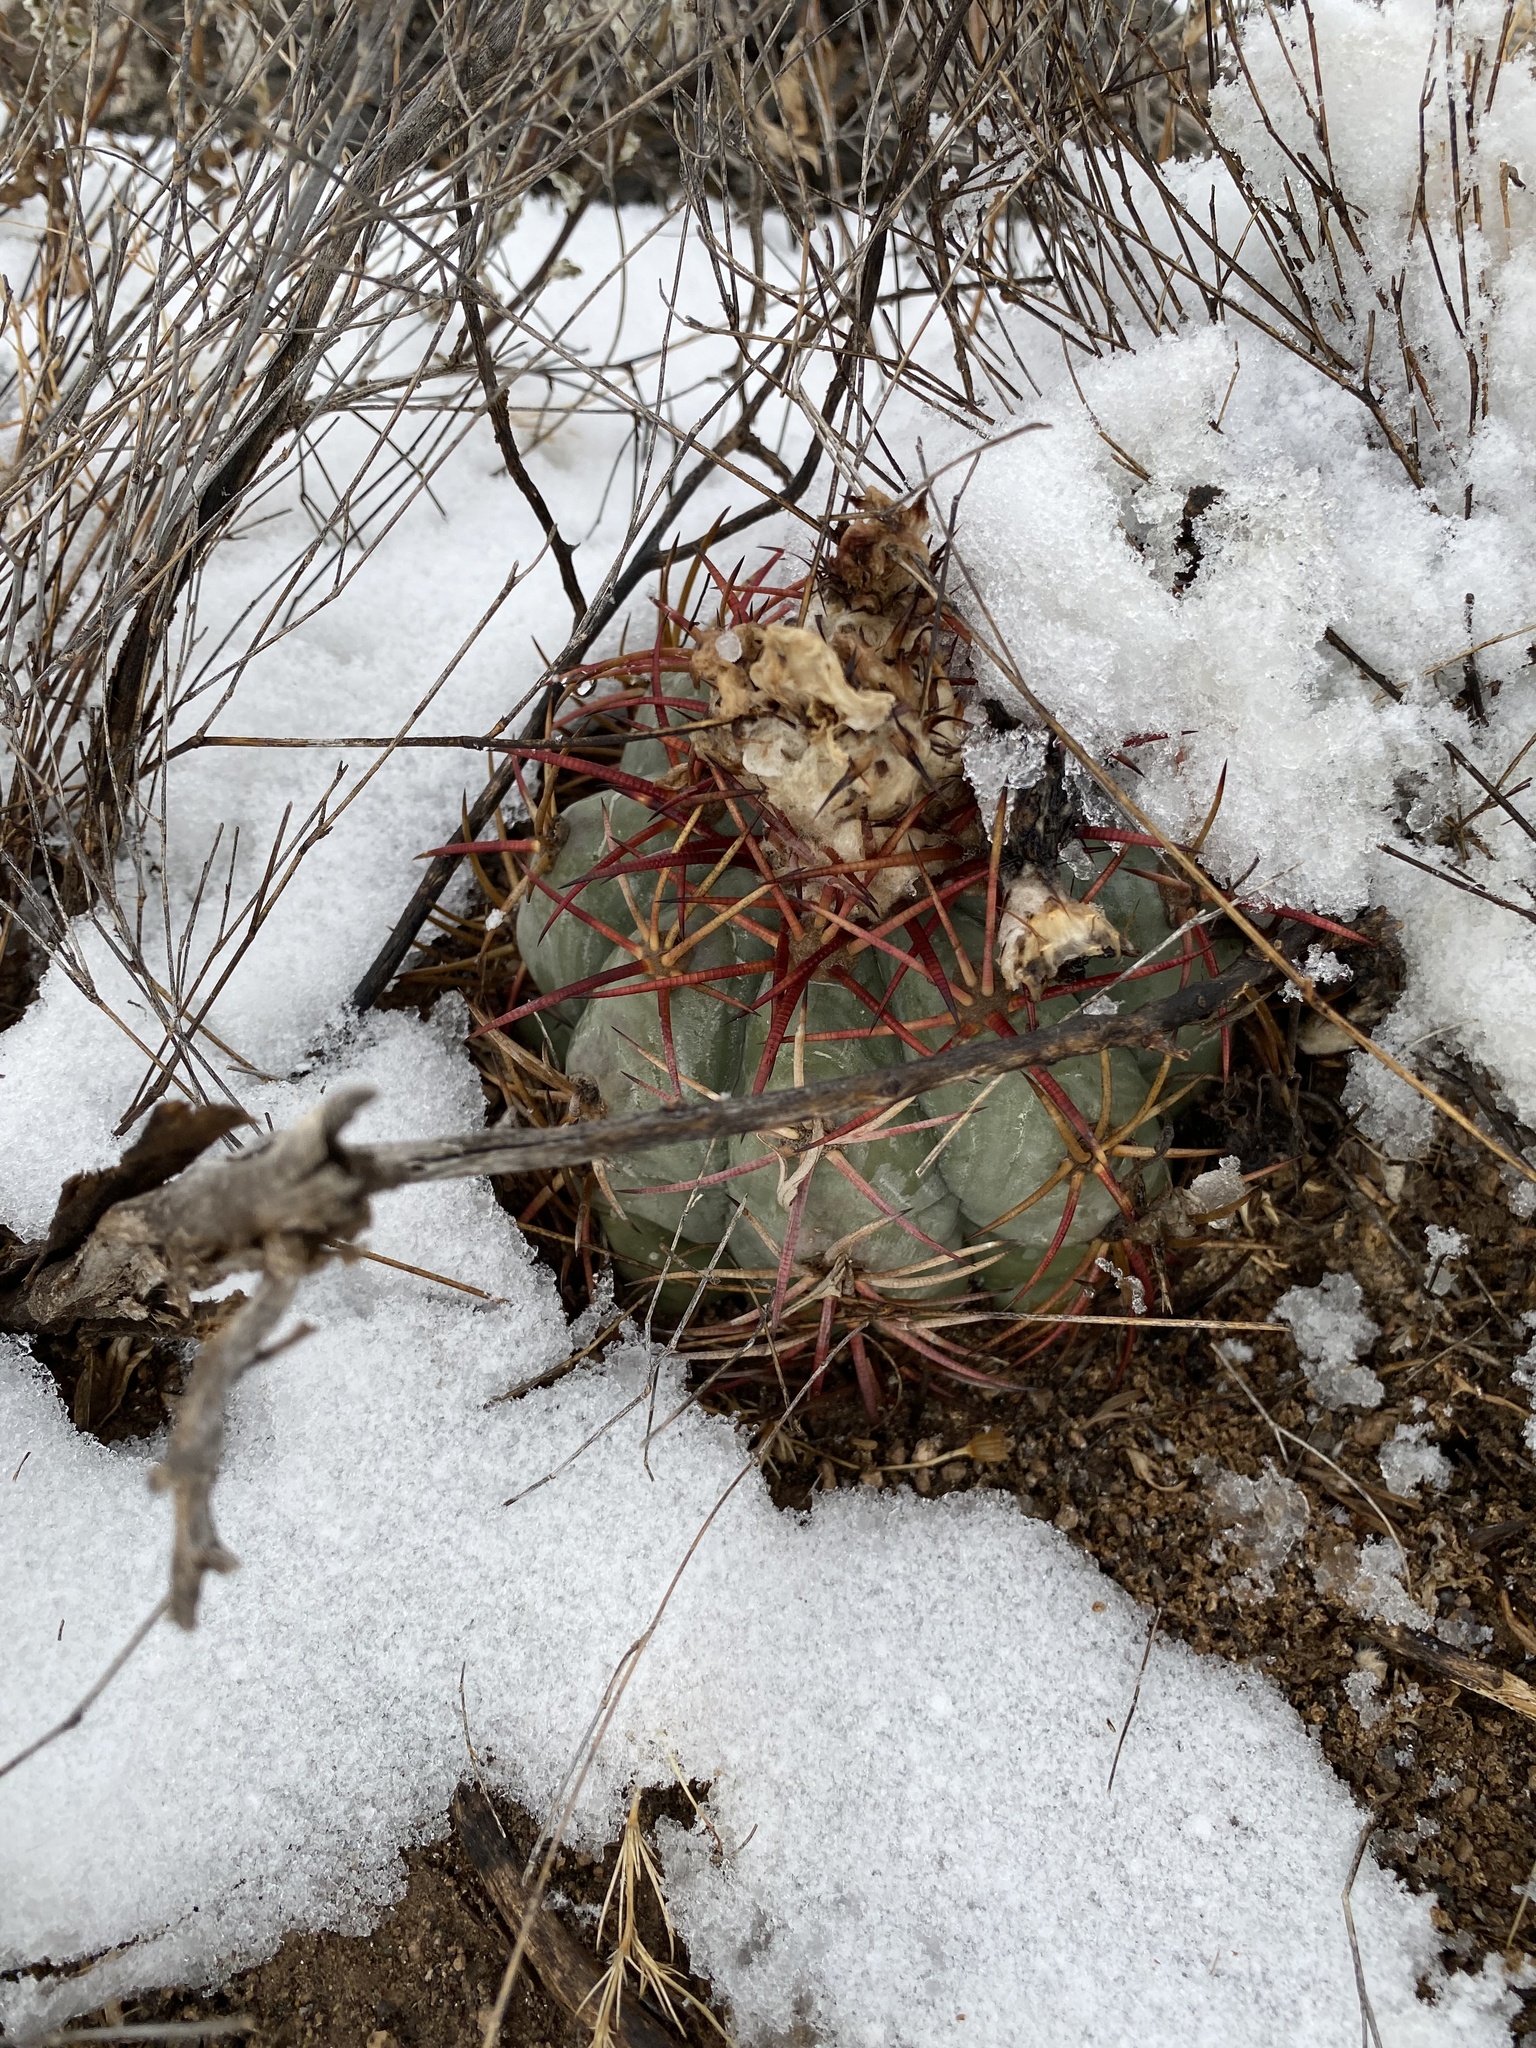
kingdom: Plantae
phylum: Tracheophyta
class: Magnoliopsida
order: Caryophyllales
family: Cactaceae
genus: Echinocactus
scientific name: Echinocactus horizonthalonius
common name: Devilshead
